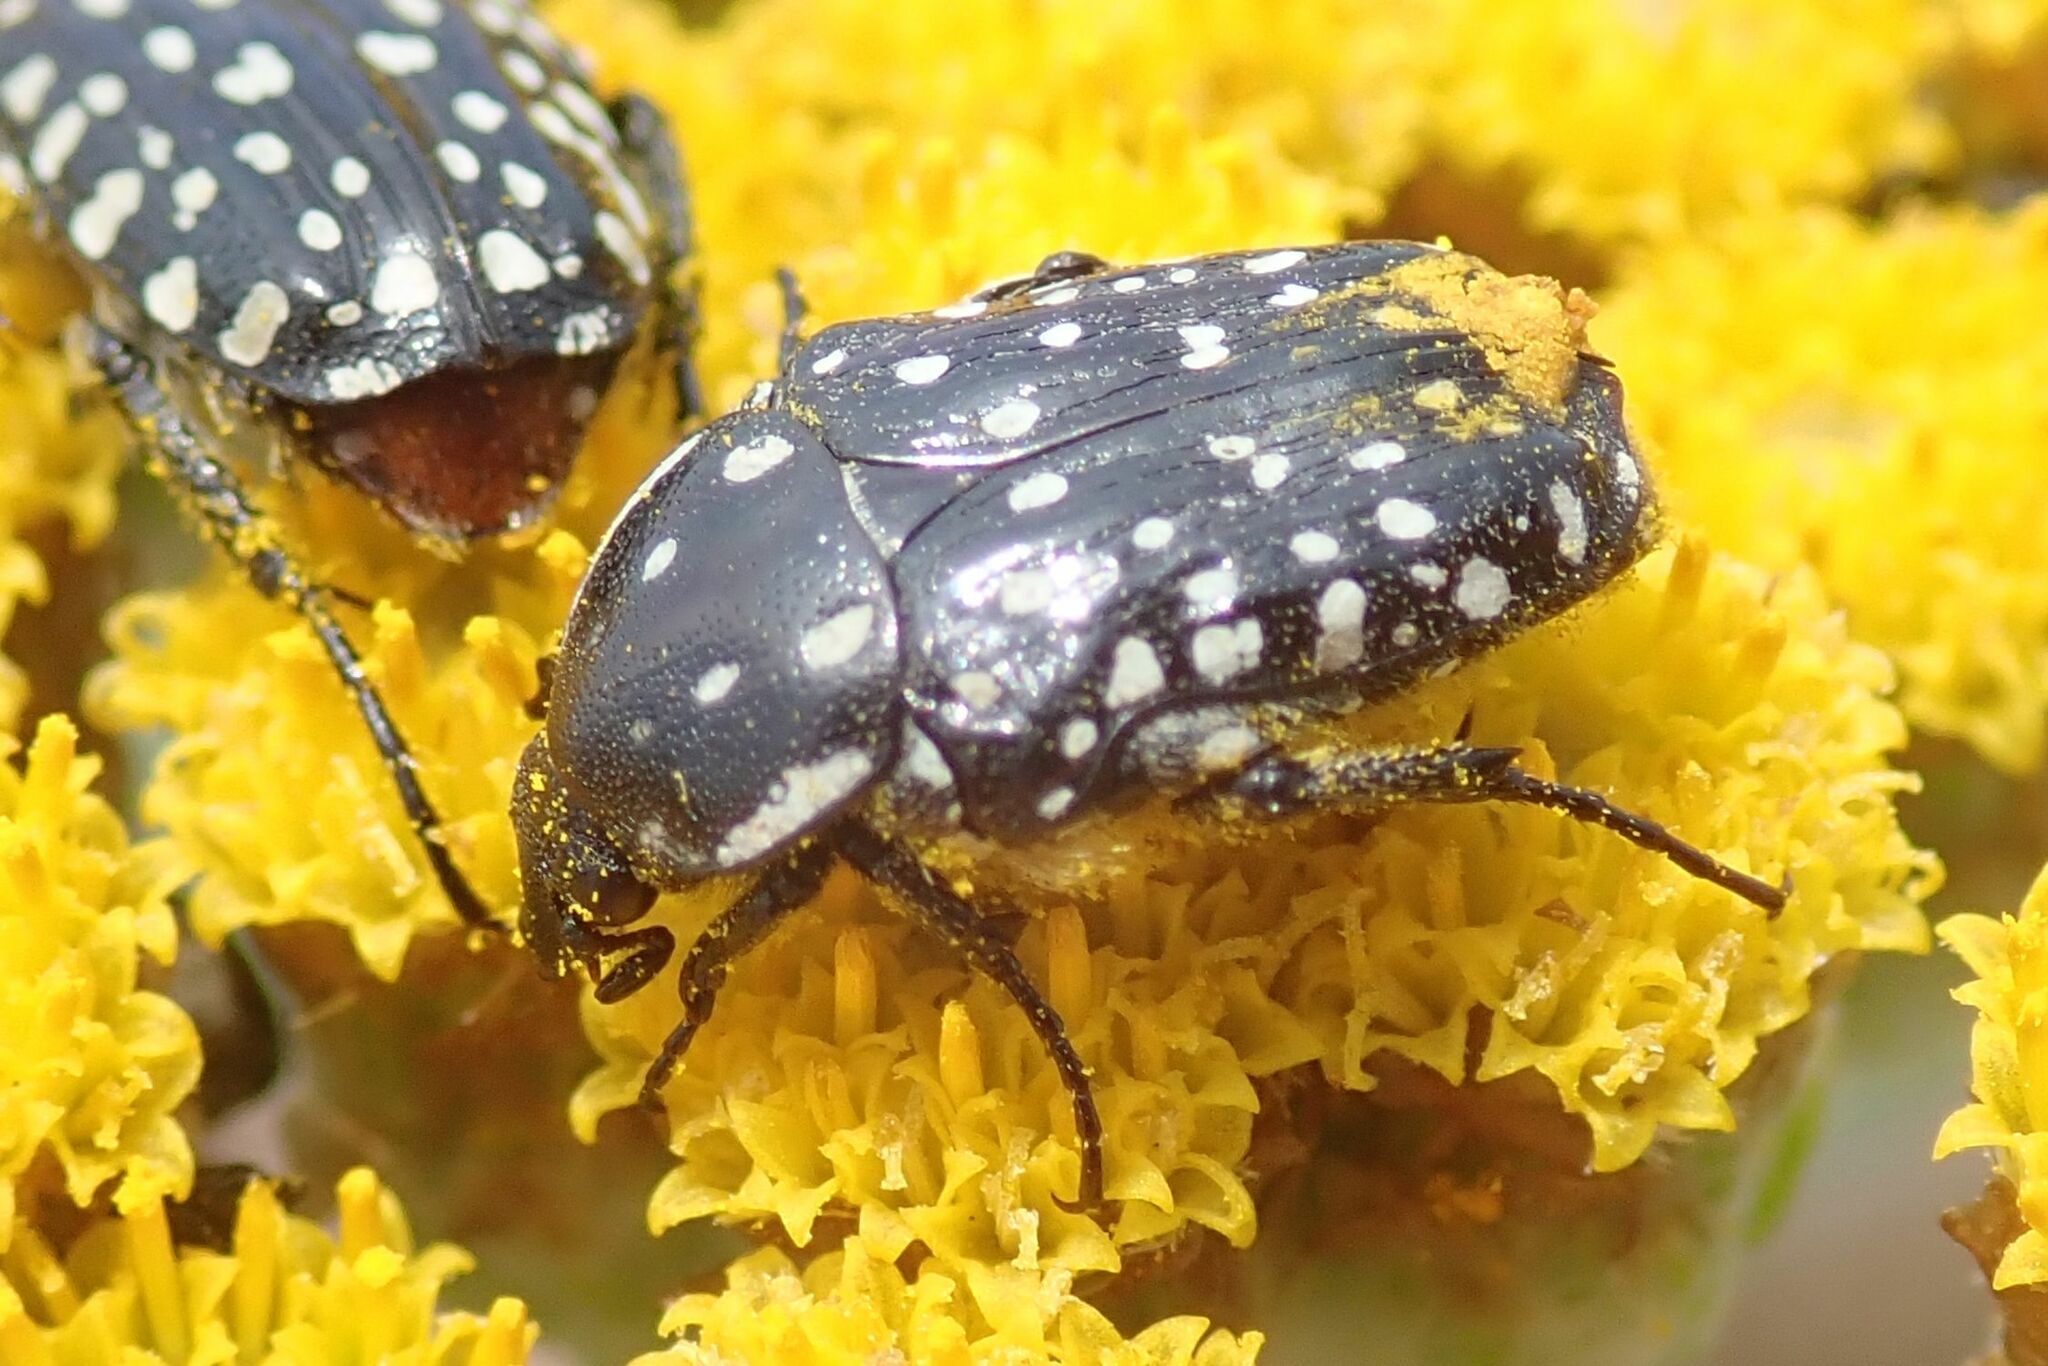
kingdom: Animalia
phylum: Arthropoda
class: Insecta
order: Coleoptera
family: Scarabaeidae
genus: Cyrtothyrea
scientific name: Cyrtothyrea testaceoguttata
